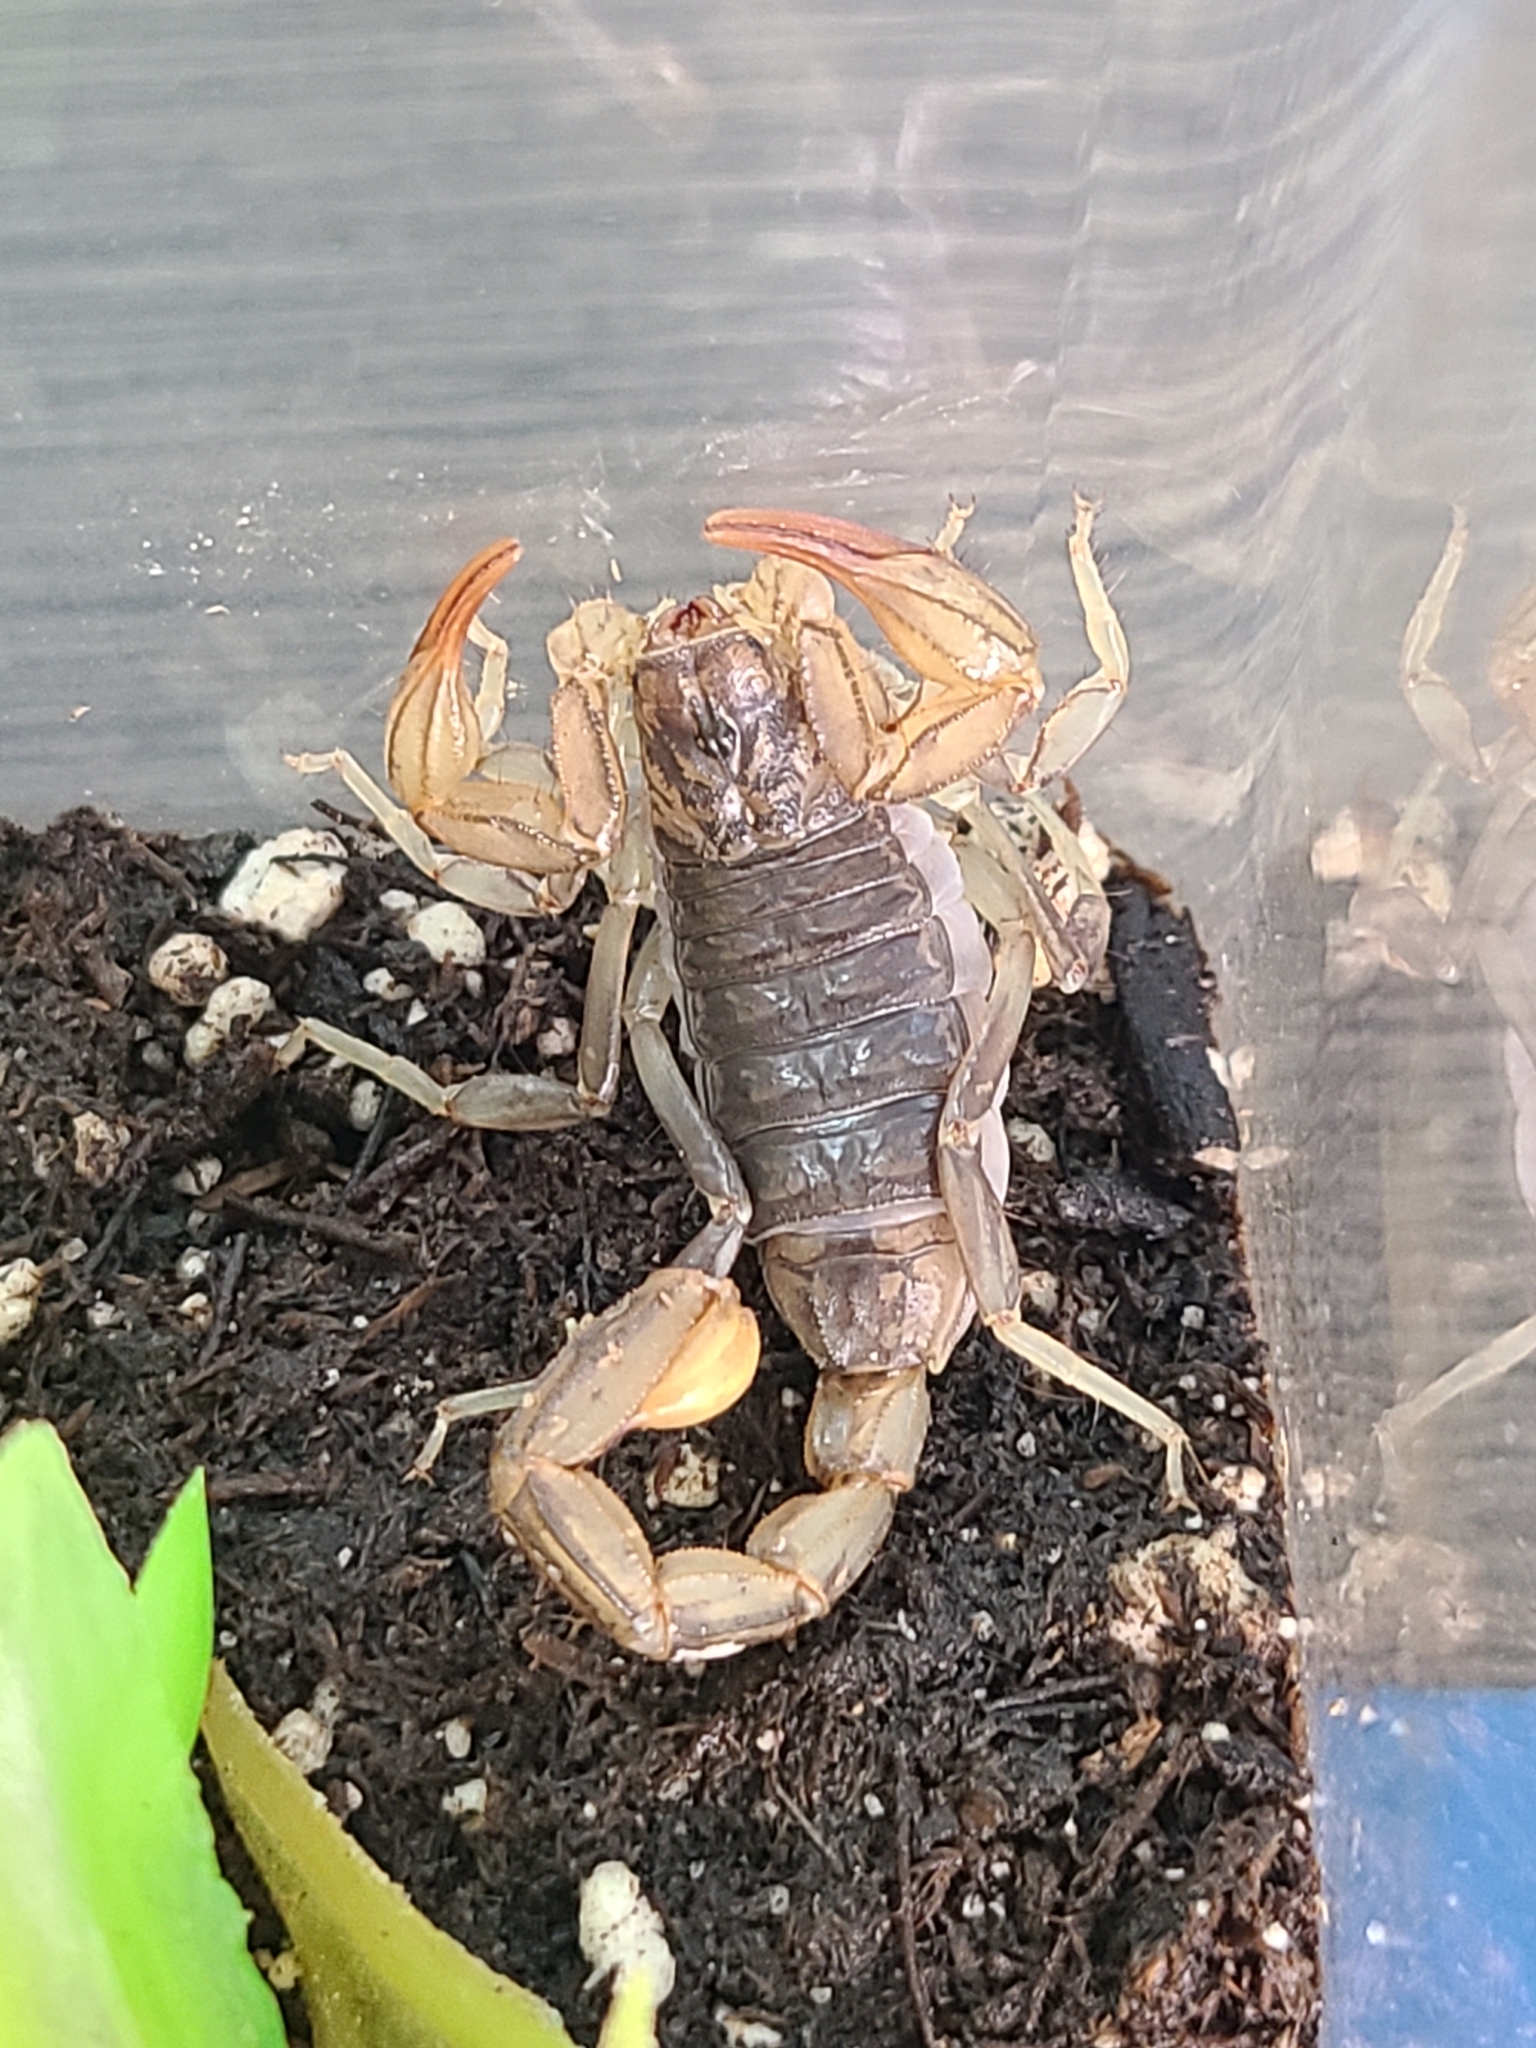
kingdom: Animalia
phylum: Arthropoda
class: Arachnida
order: Scorpiones
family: Vaejovidae
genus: Paruroctonus
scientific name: Paruroctonus silvestrii
